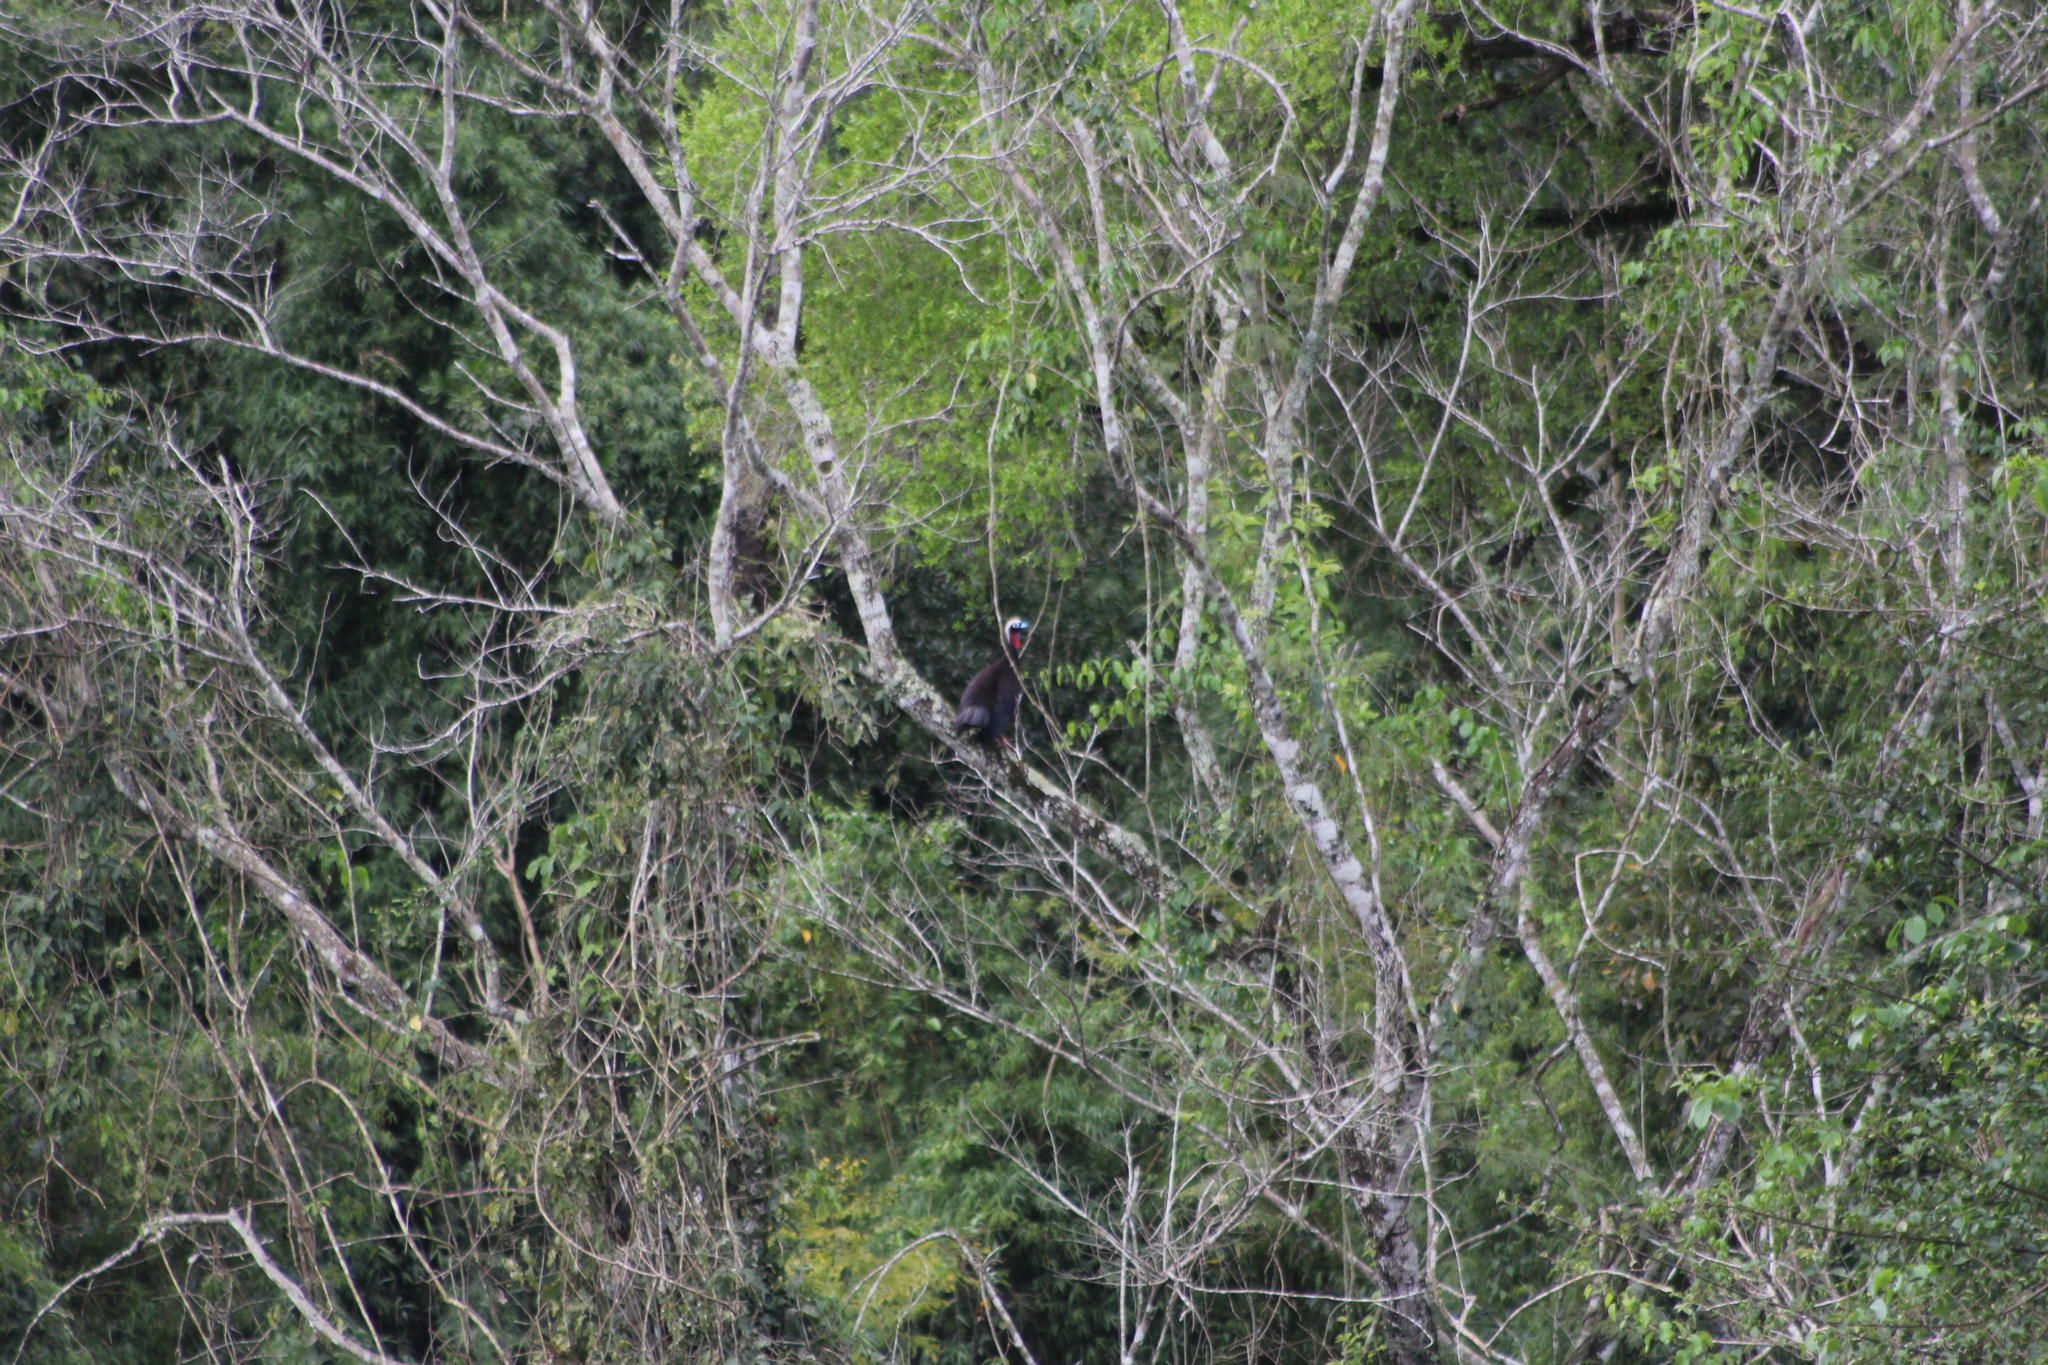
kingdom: Animalia
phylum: Chordata
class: Aves
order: Galliformes
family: Cracidae
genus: Pipile
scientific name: Pipile jacutinga
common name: Black-fronted piping-guan
